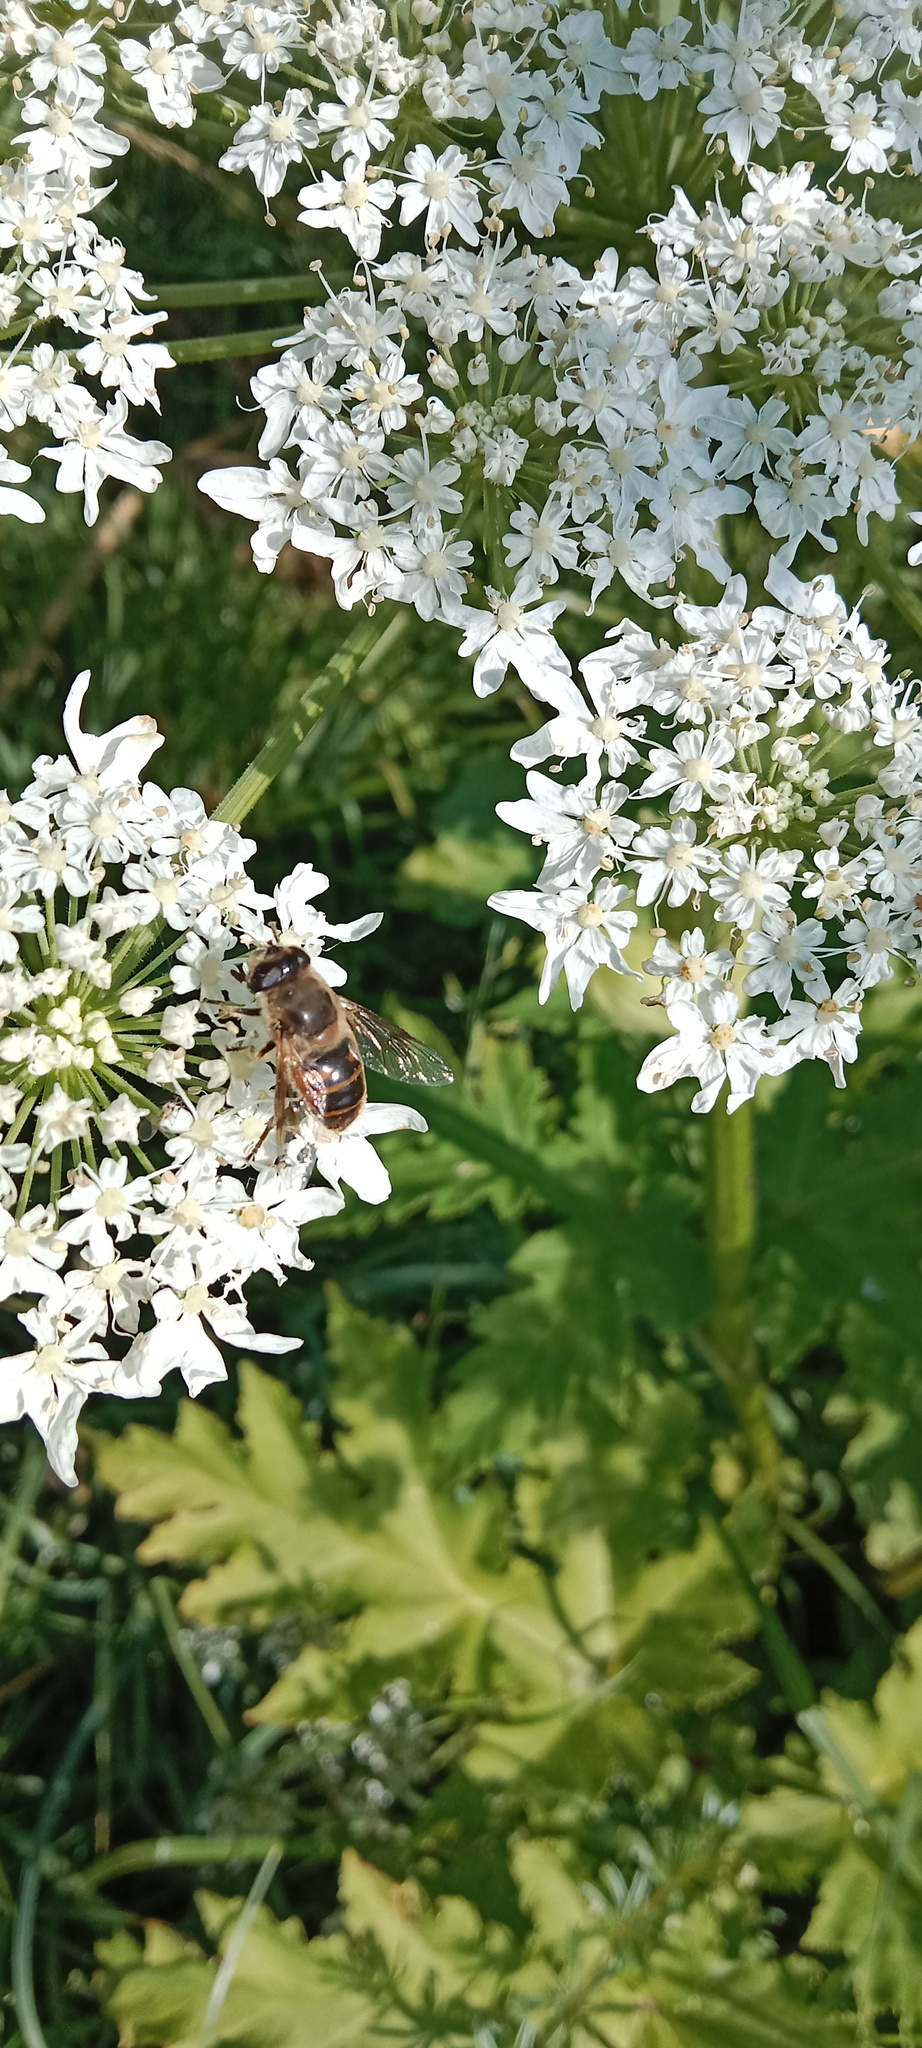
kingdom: Animalia
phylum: Arthropoda
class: Insecta
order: Diptera
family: Syrphidae
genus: Eristalis
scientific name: Eristalis tenax
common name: Drone fly
